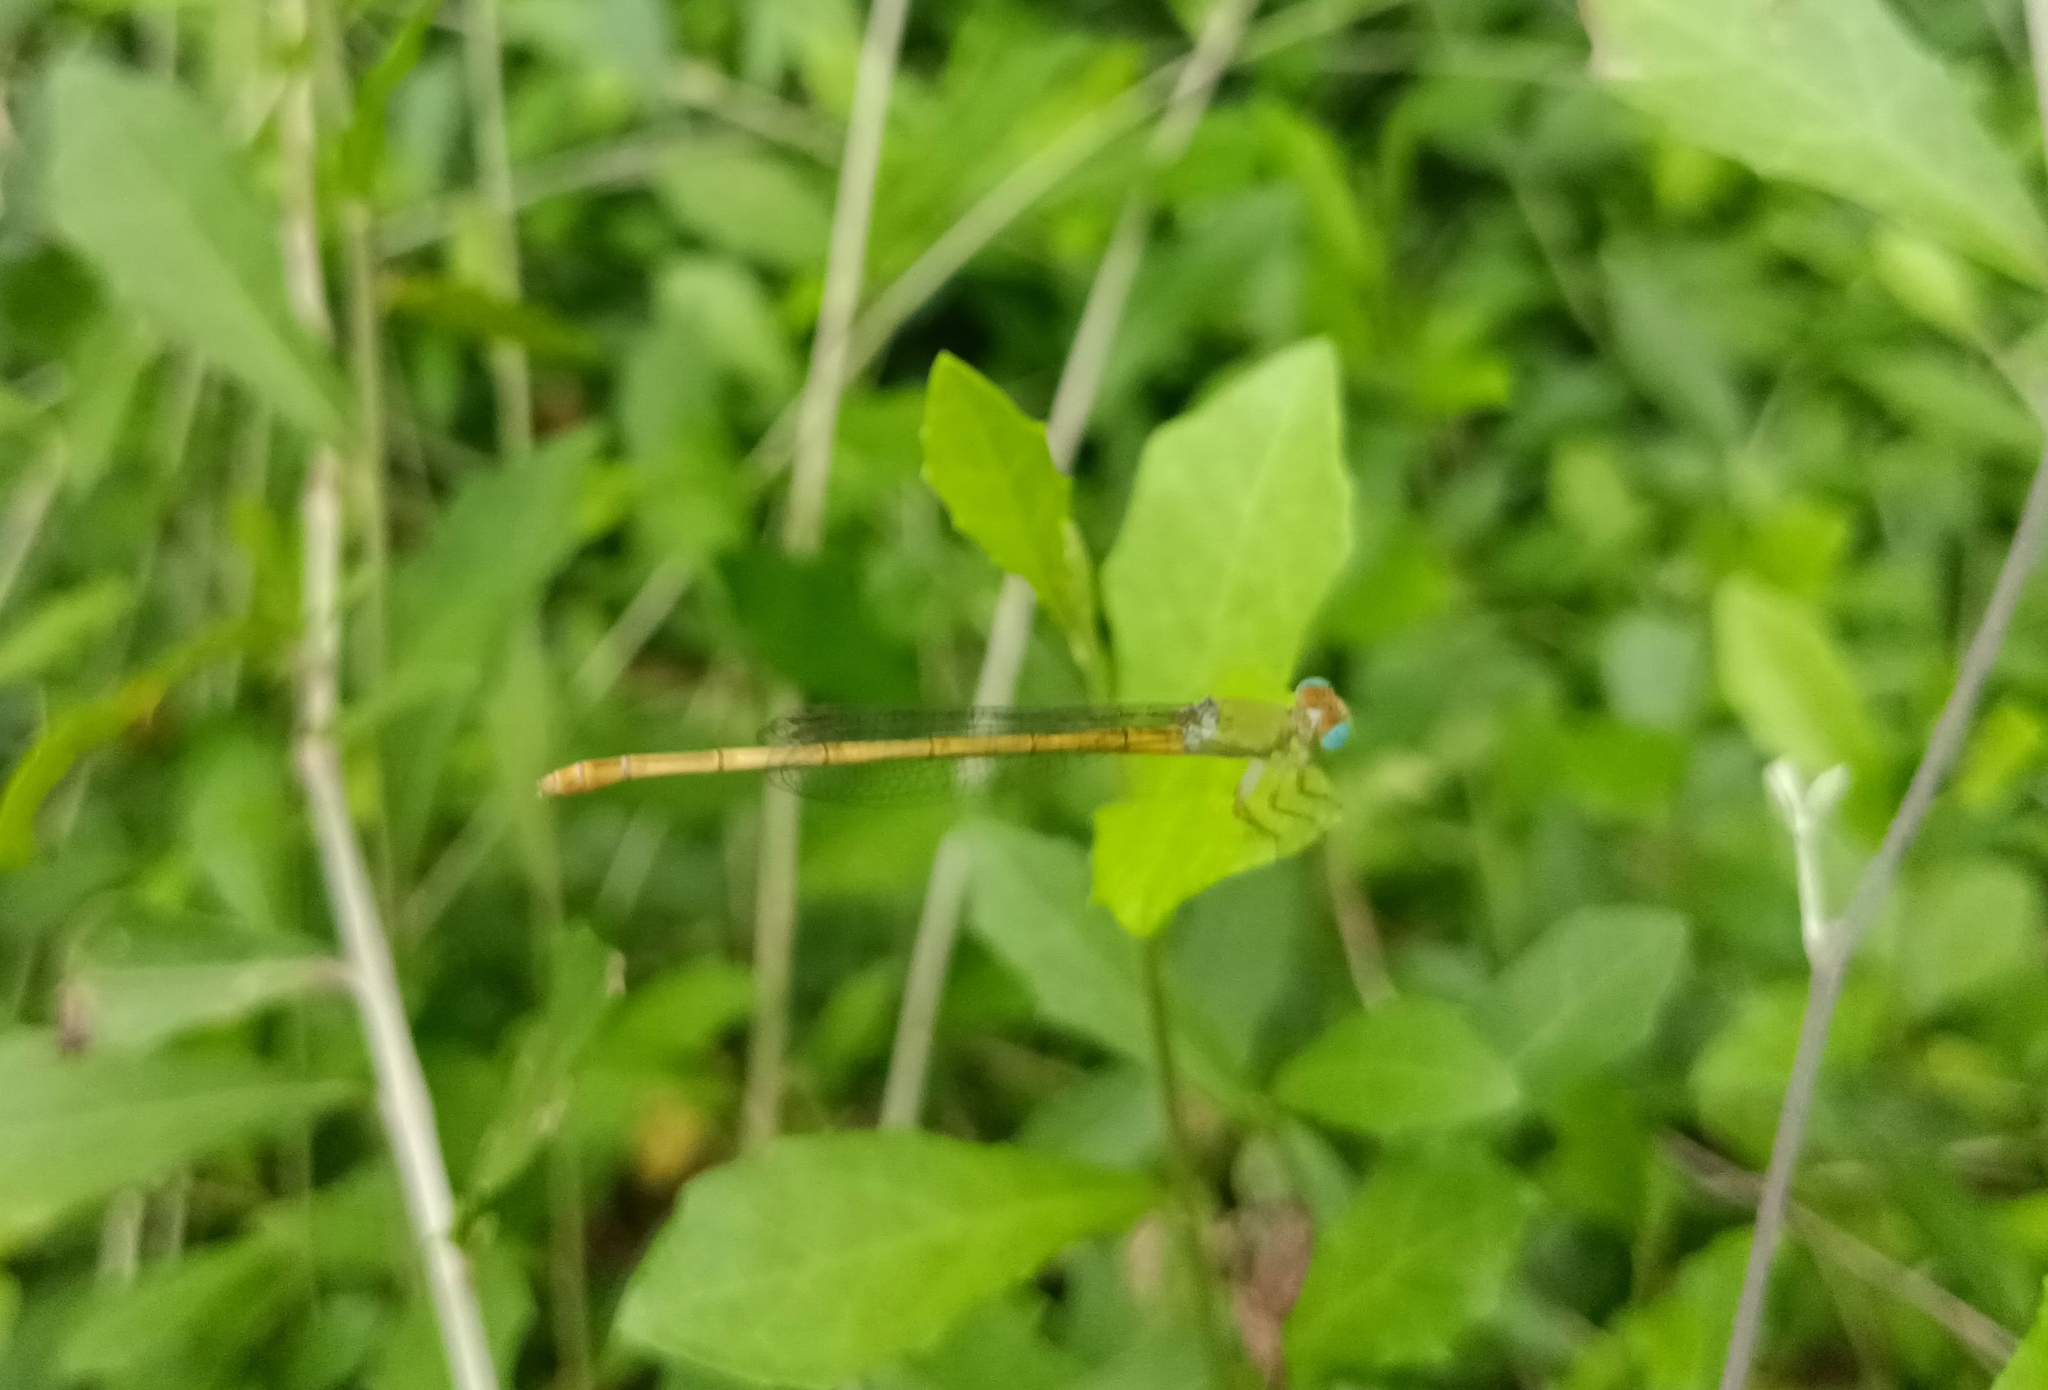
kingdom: Animalia
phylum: Arthropoda
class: Insecta
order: Odonata
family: Coenagrionidae
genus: Ceriagrion
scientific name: Ceriagrion coromandelianum
